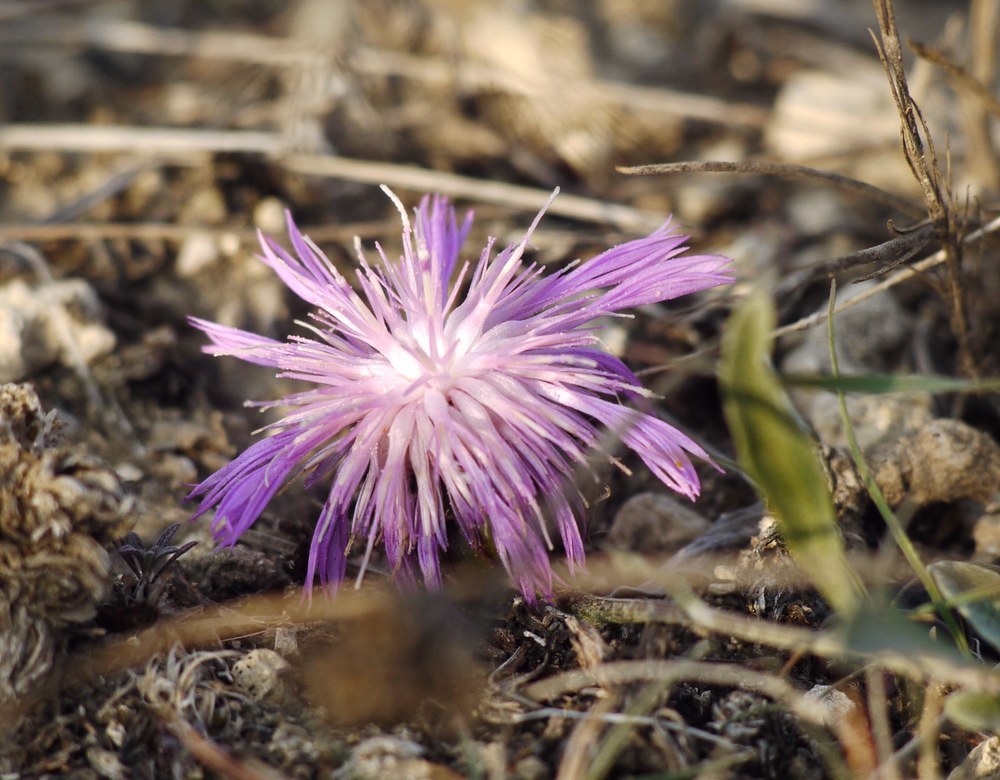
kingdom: Plantae
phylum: Tracheophyta
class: Magnoliopsida
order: Asterales
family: Asteraceae
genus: Psephellus
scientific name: Psephellus marschallianus
